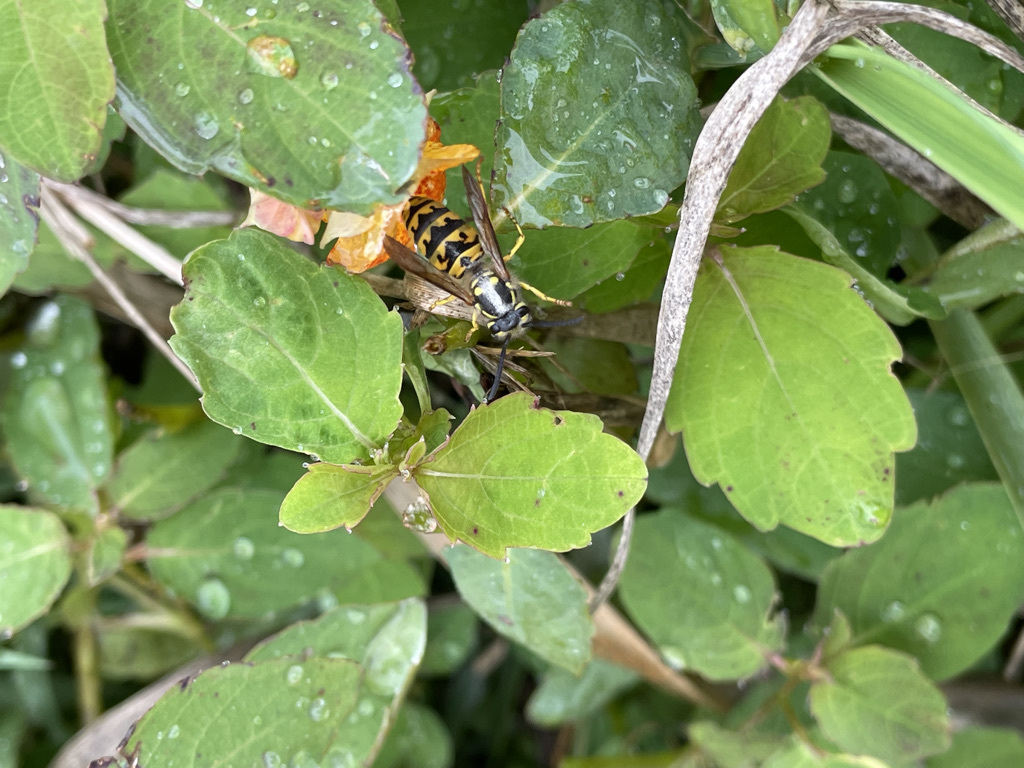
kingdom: Animalia
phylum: Arthropoda
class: Insecta
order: Hymenoptera
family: Vespidae
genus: Vespula
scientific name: Vespula germanica
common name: German wasp
